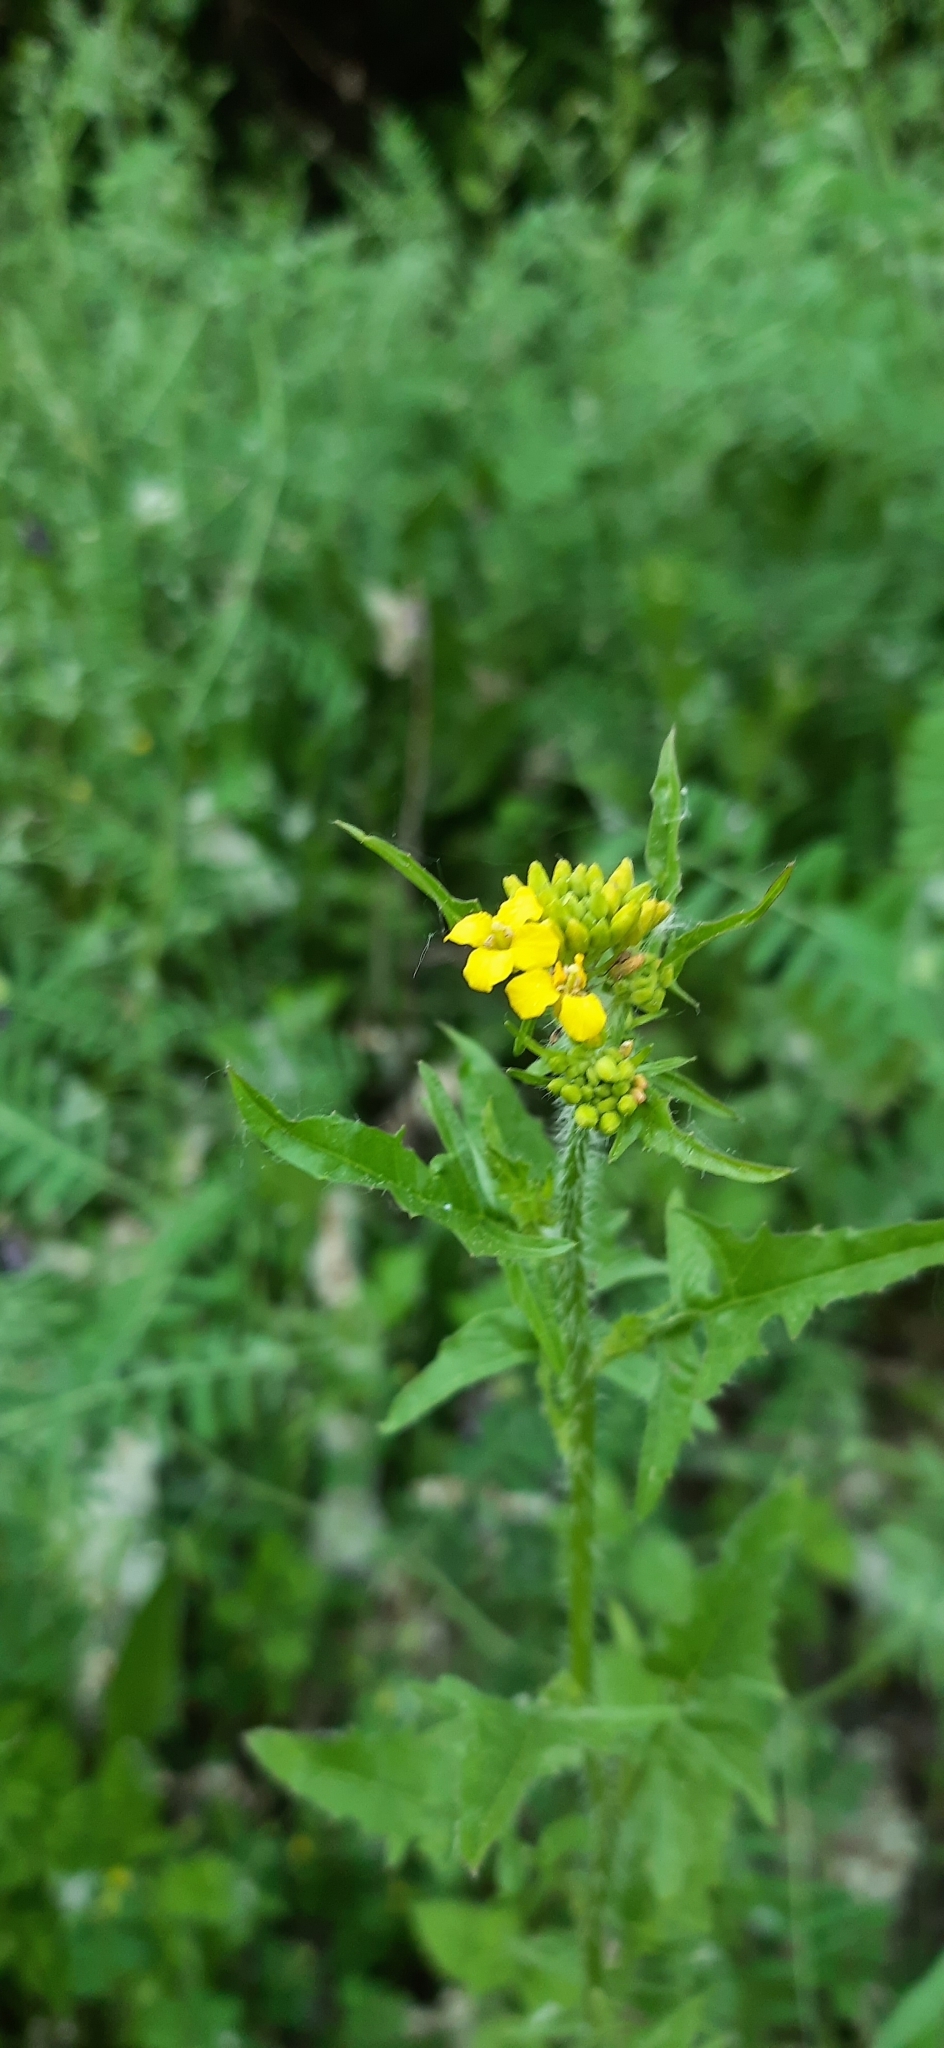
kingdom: Plantae
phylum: Tracheophyta
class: Magnoliopsida
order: Brassicales
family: Brassicaceae
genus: Sisymbrium
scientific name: Sisymbrium loeselii
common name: False london-rocket
